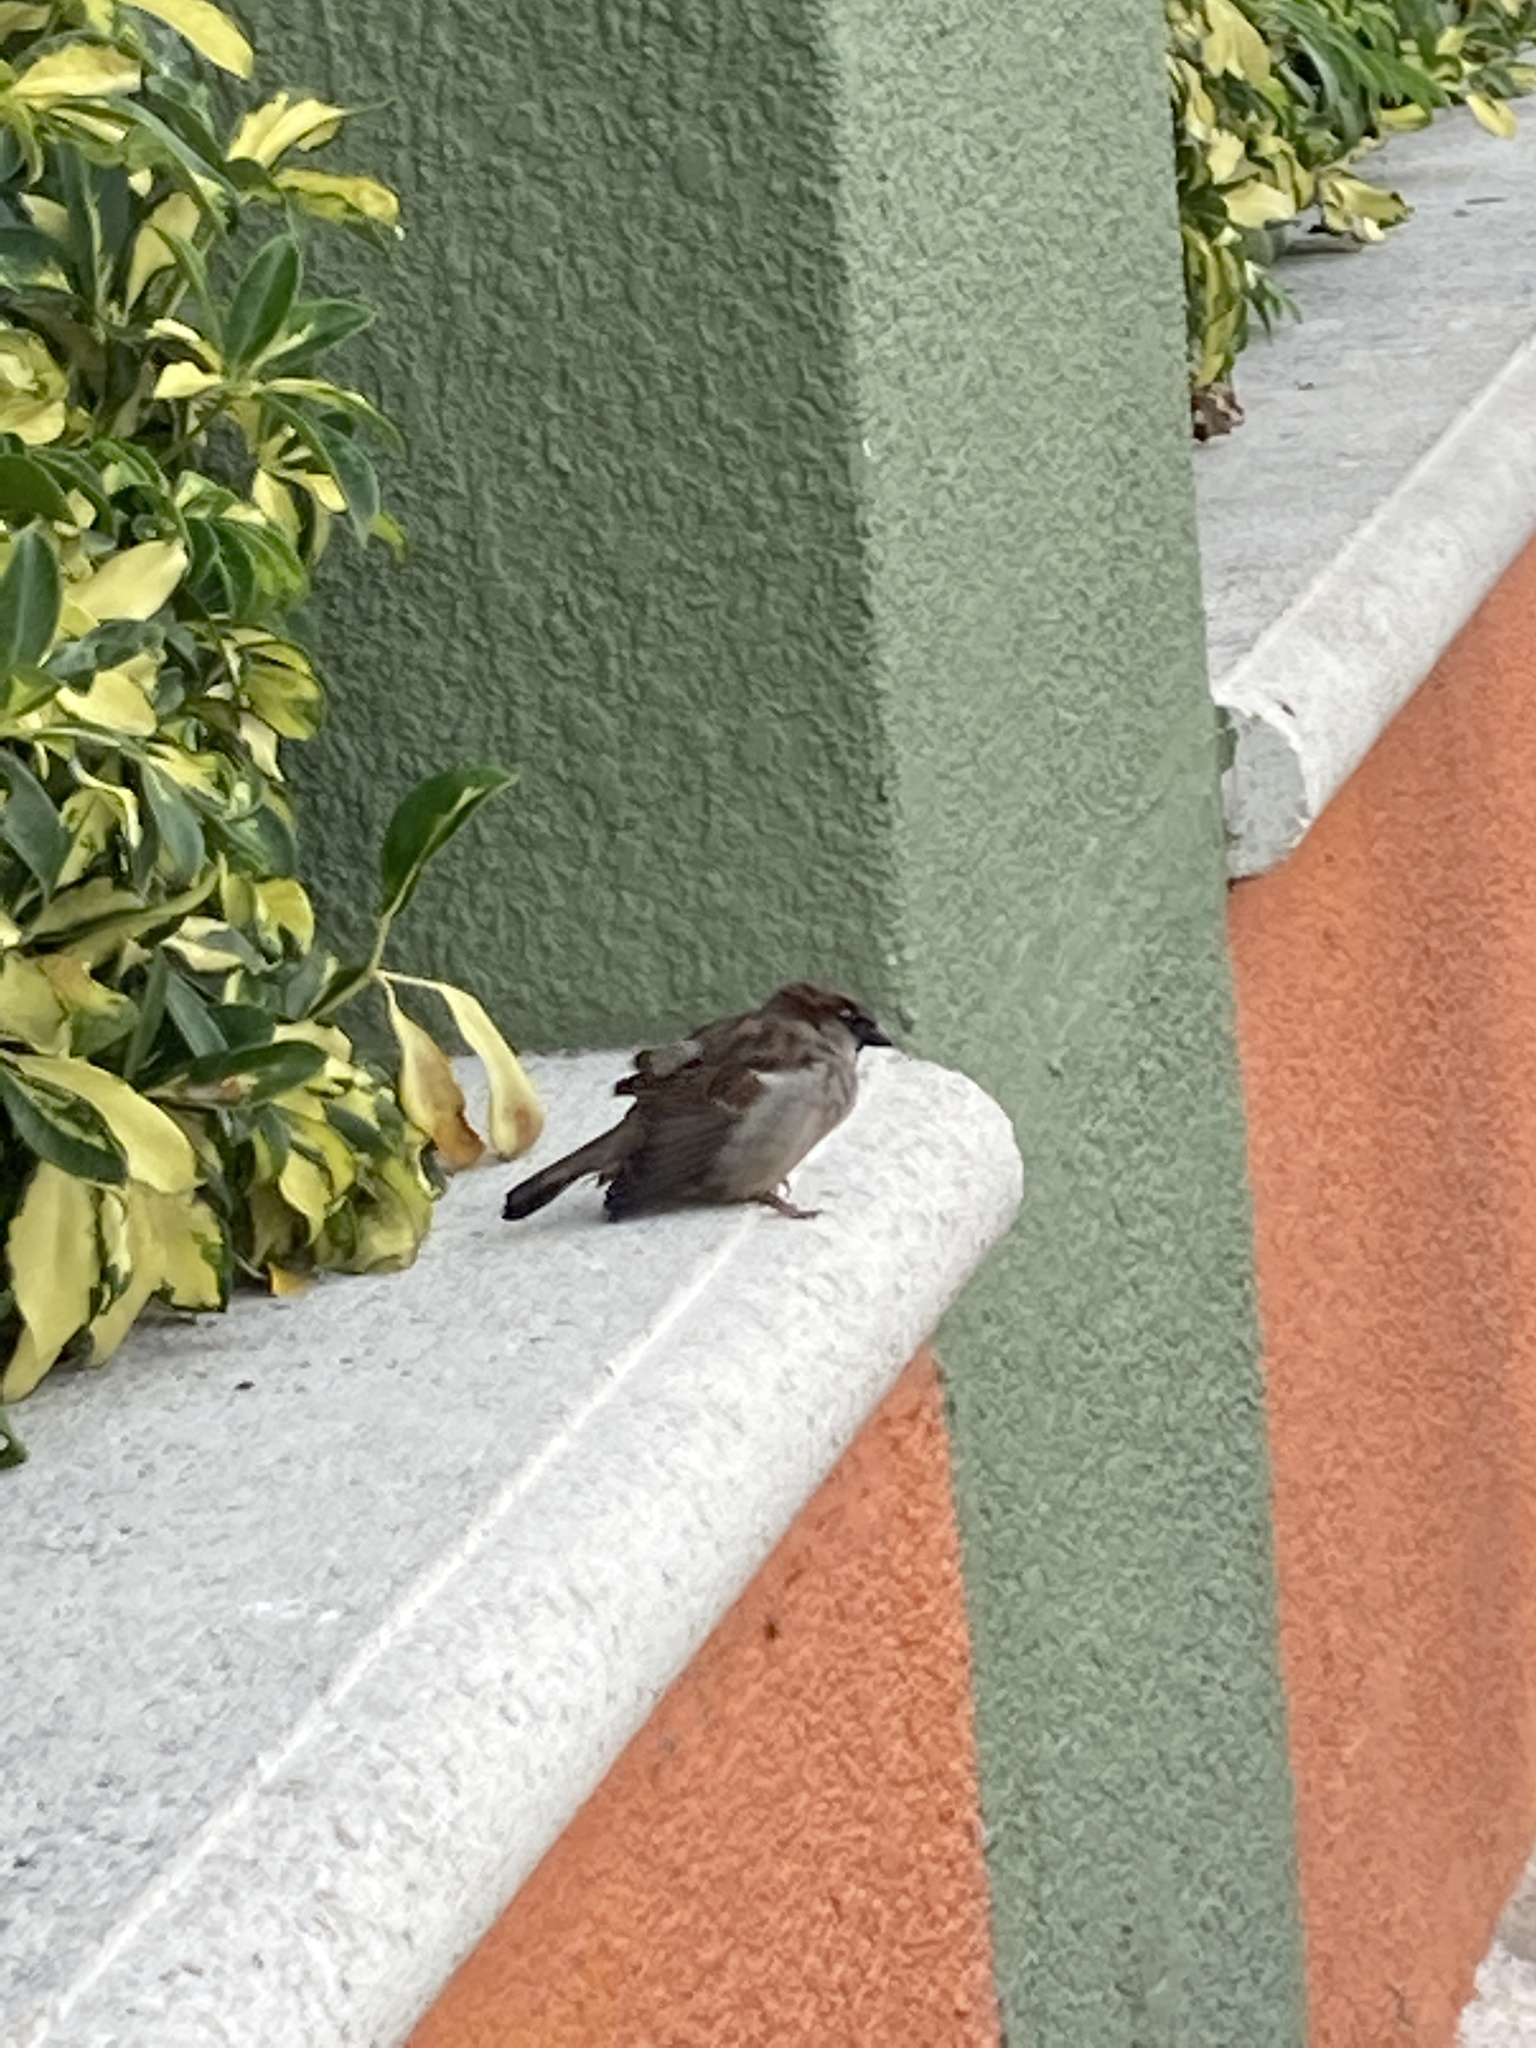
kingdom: Animalia
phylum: Chordata
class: Aves
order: Passeriformes
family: Passeridae
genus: Passer
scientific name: Passer domesticus
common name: House sparrow
